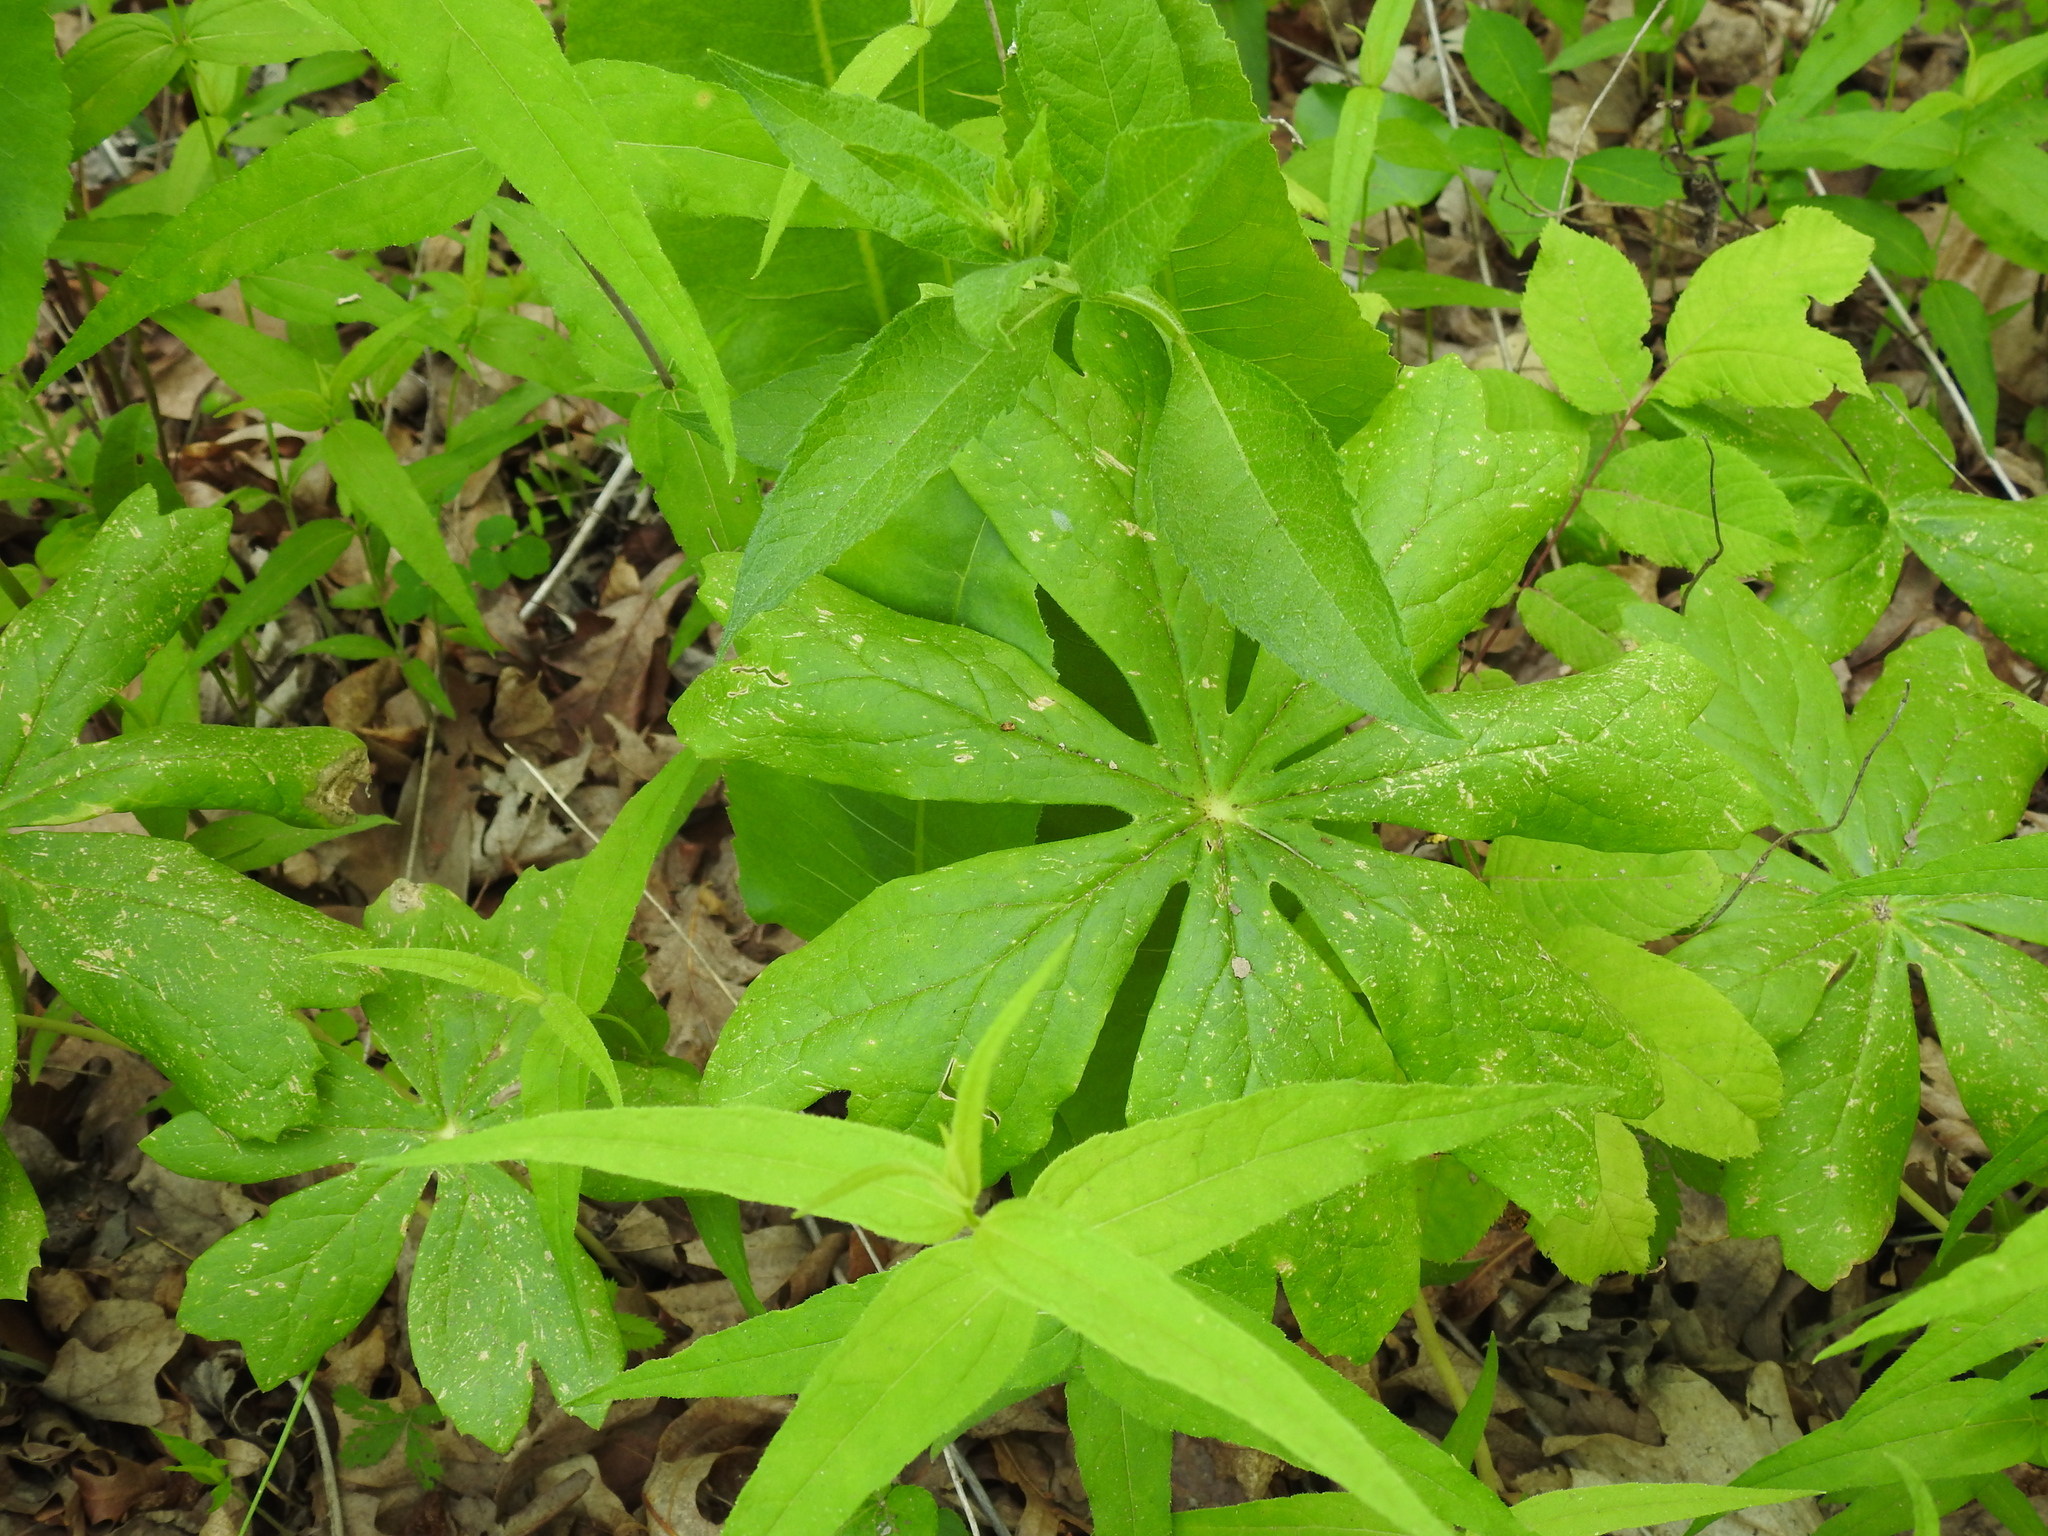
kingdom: Plantae
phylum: Tracheophyta
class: Magnoliopsida
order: Ranunculales
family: Berberidaceae
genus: Podophyllum
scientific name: Podophyllum peltatum
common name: Wild mandrake
